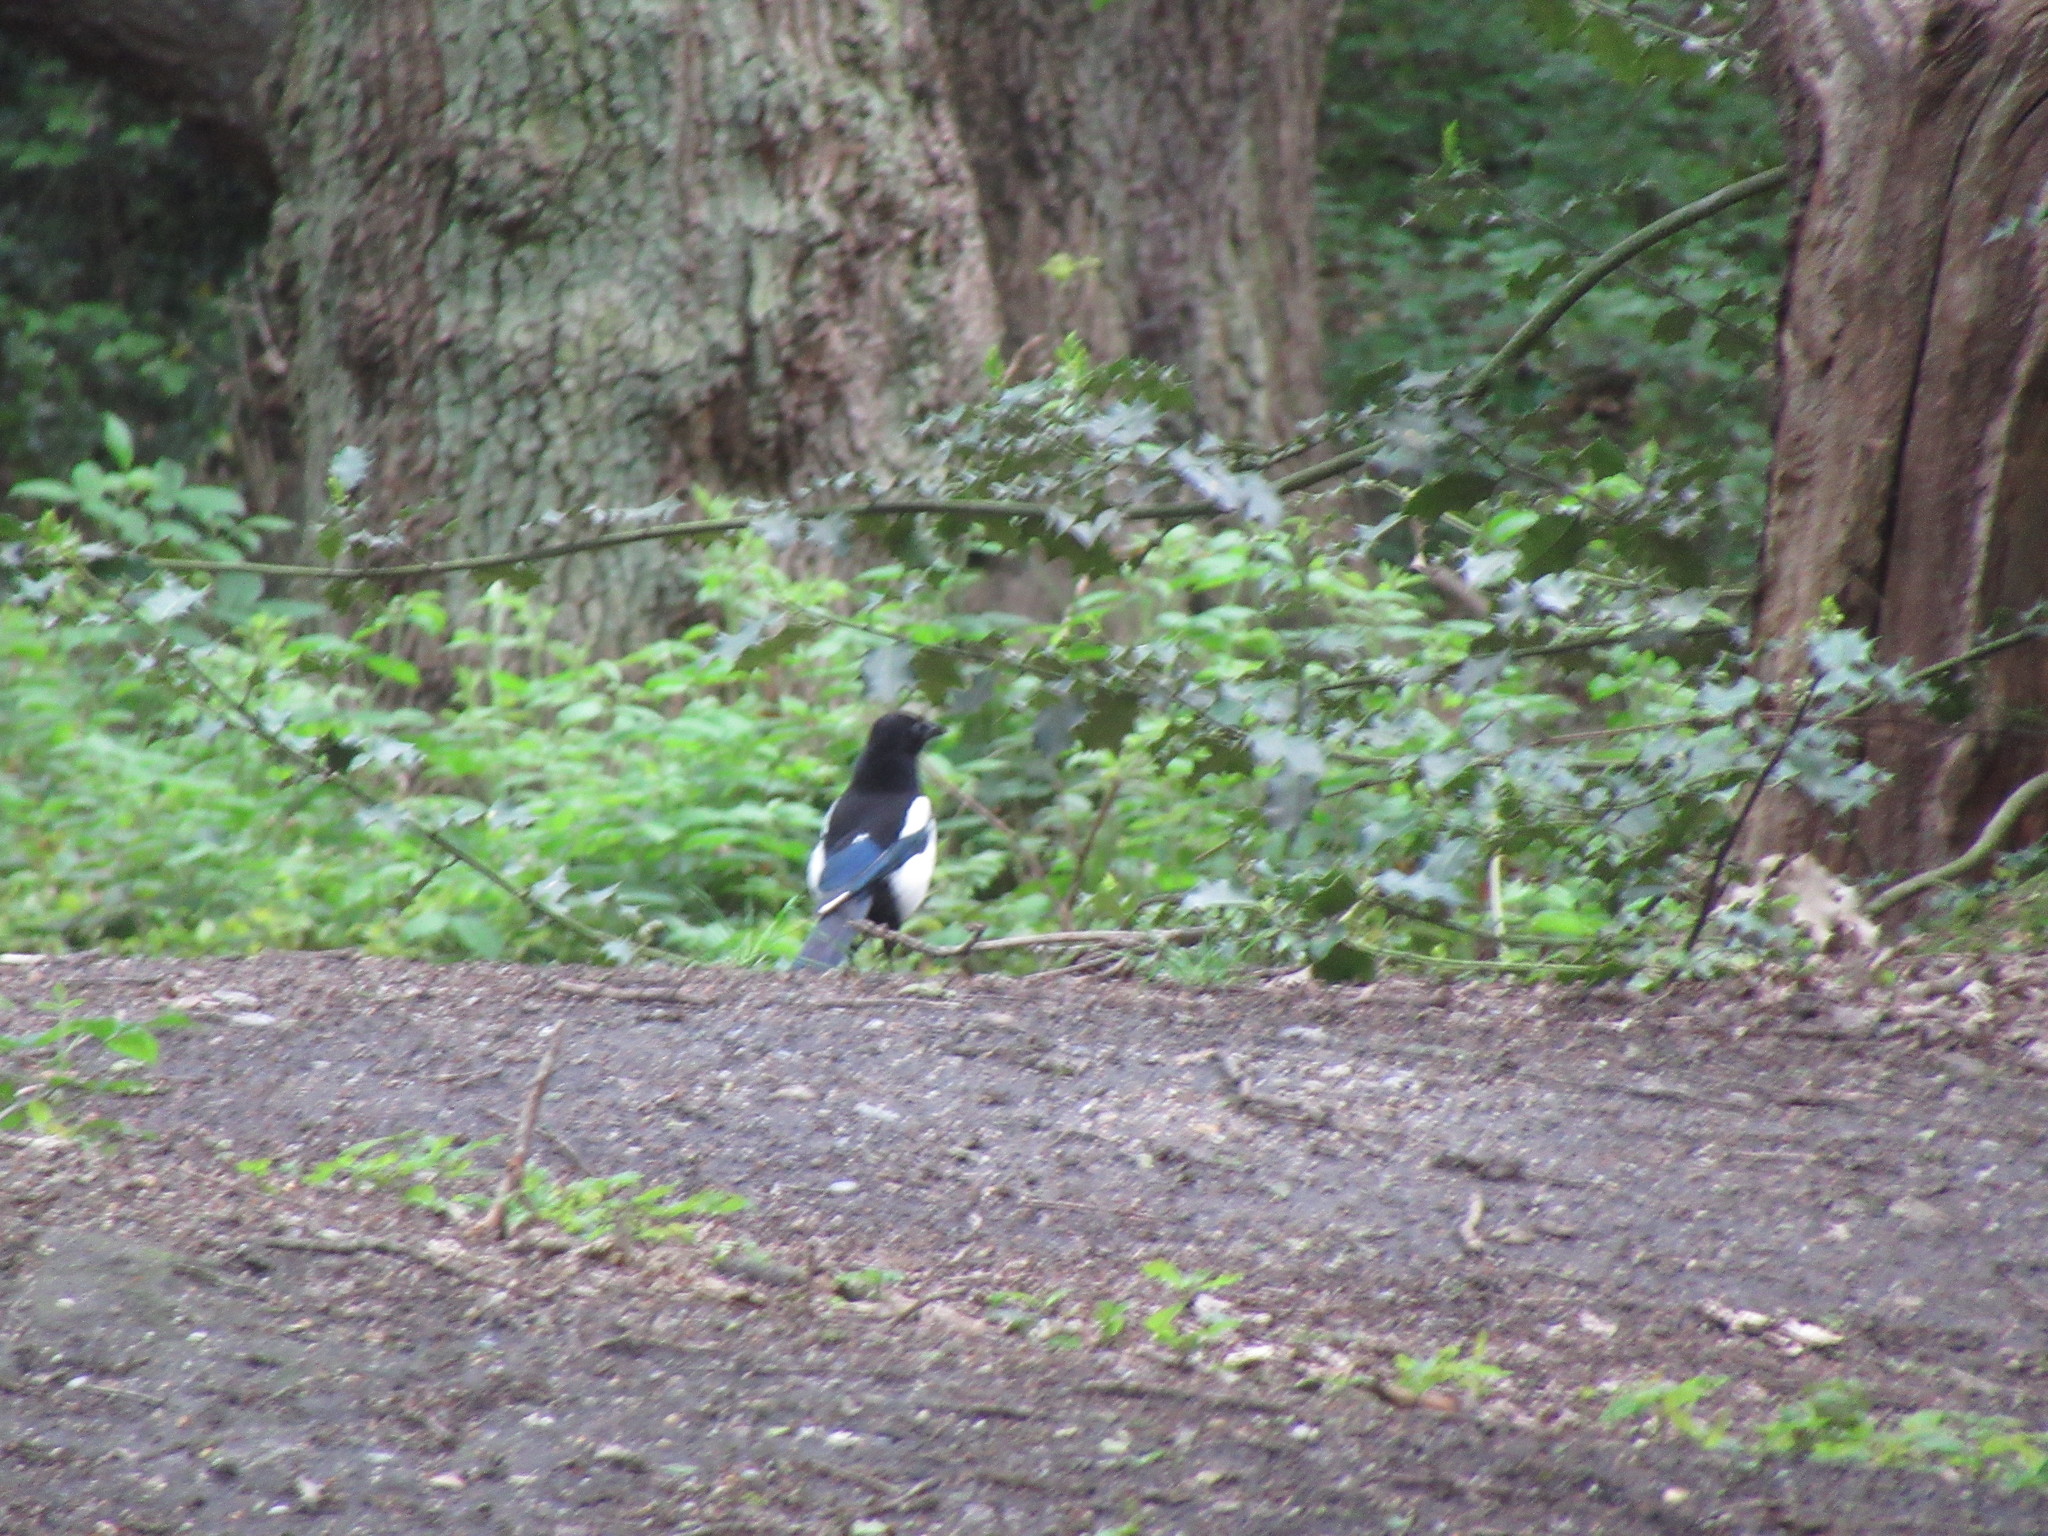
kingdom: Animalia
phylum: Chordata
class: Aves
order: Passeriformes
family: Corvidae
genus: Pica
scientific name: Pica pica
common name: Eurasian magpie
